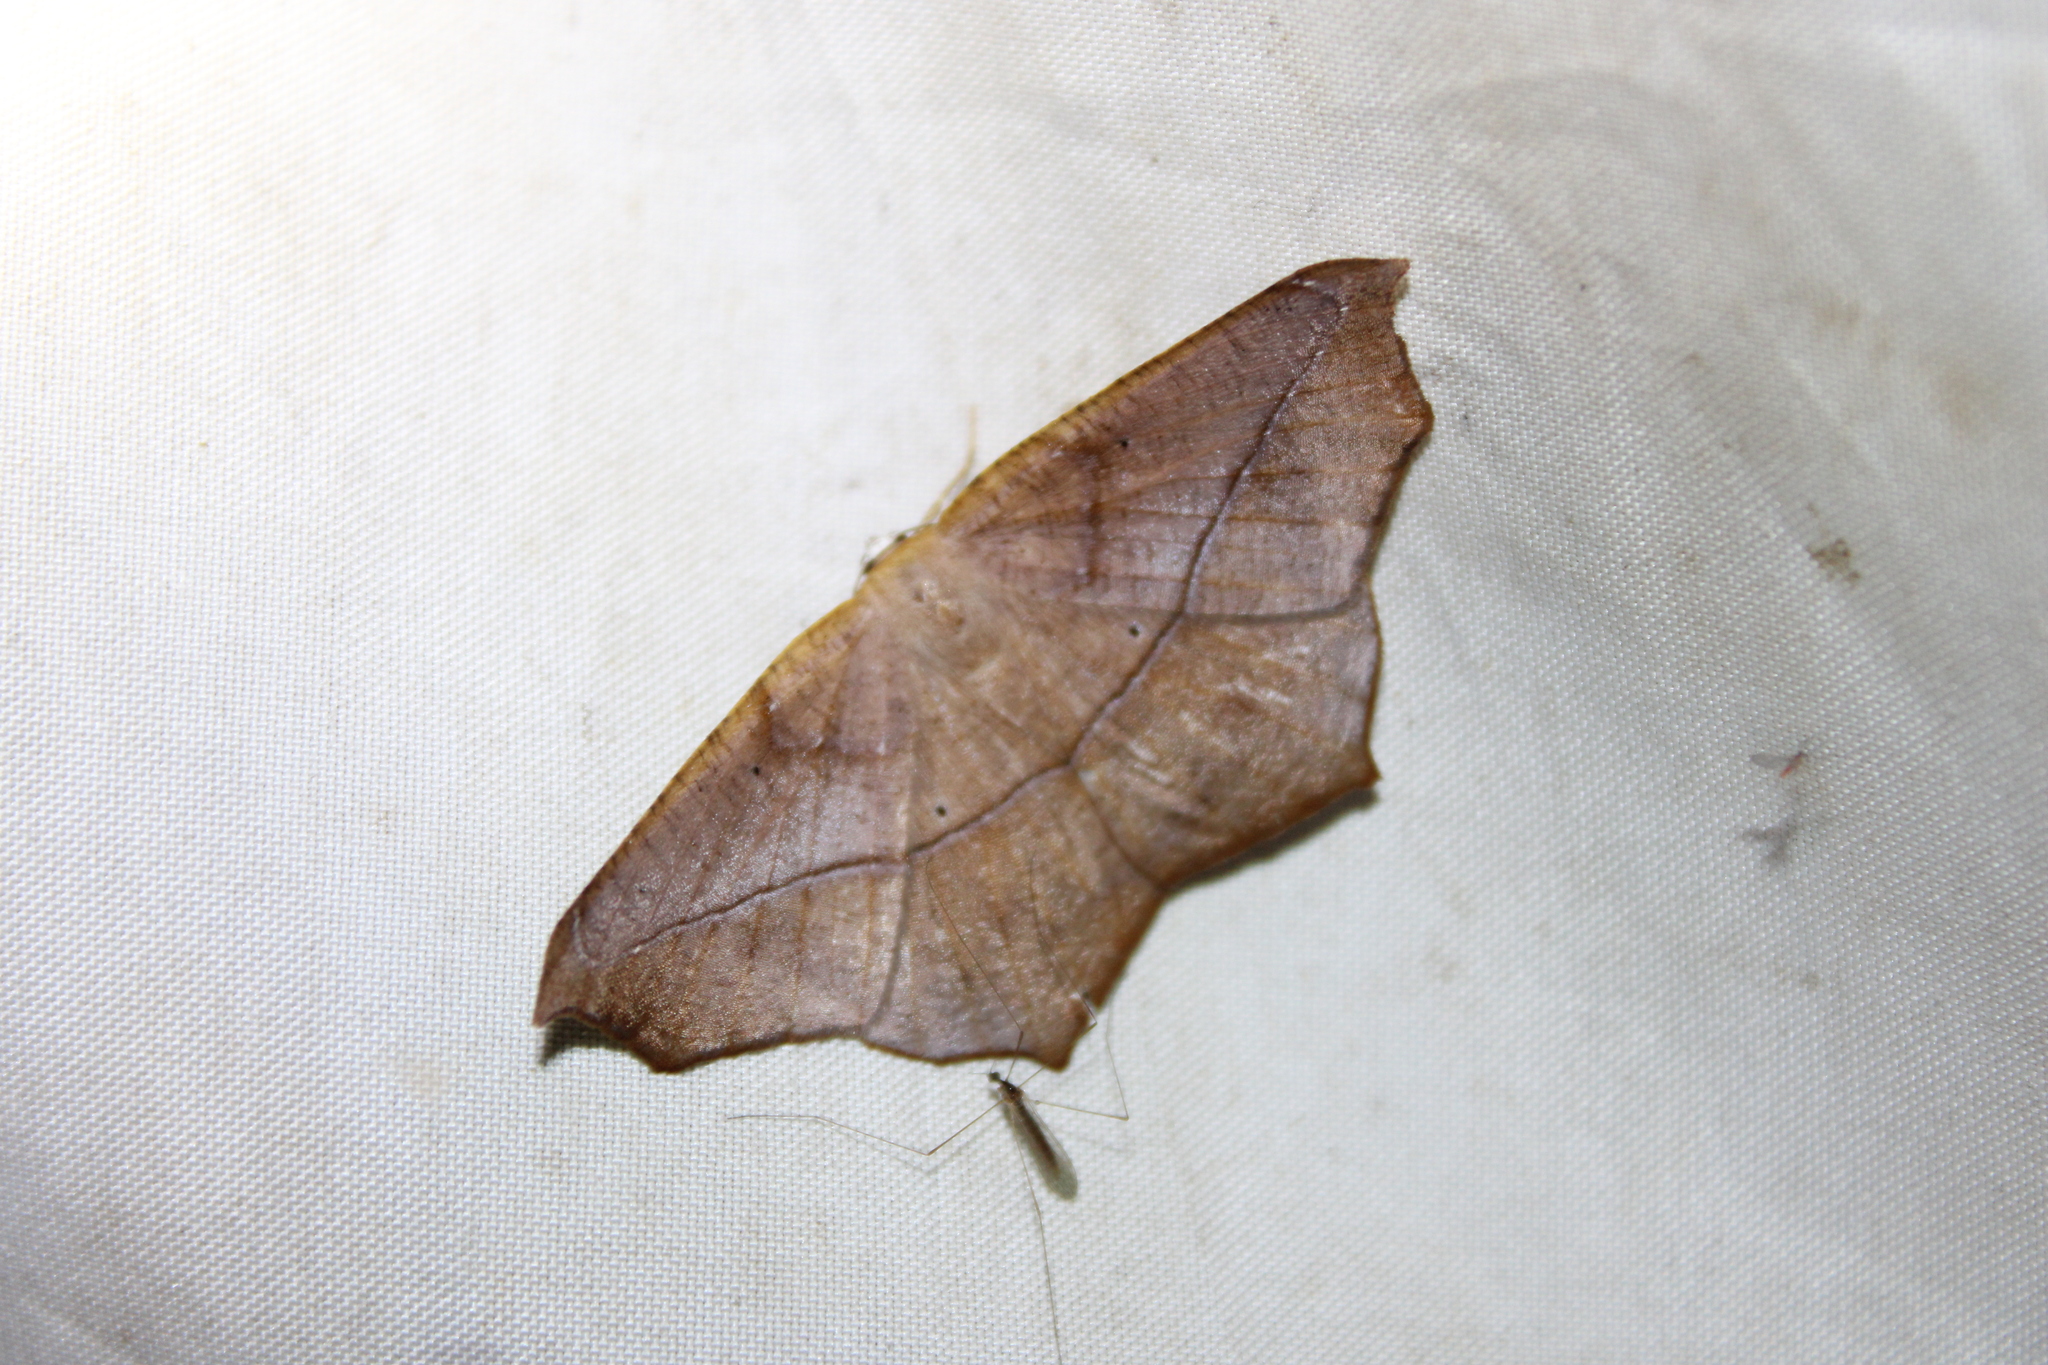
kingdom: Animalia
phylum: Arthropoda
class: Insecta
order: Lepidoptera
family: Geometridae
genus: Prochoerodes
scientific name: Prochoerodes lineola
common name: Large maple spanworm
